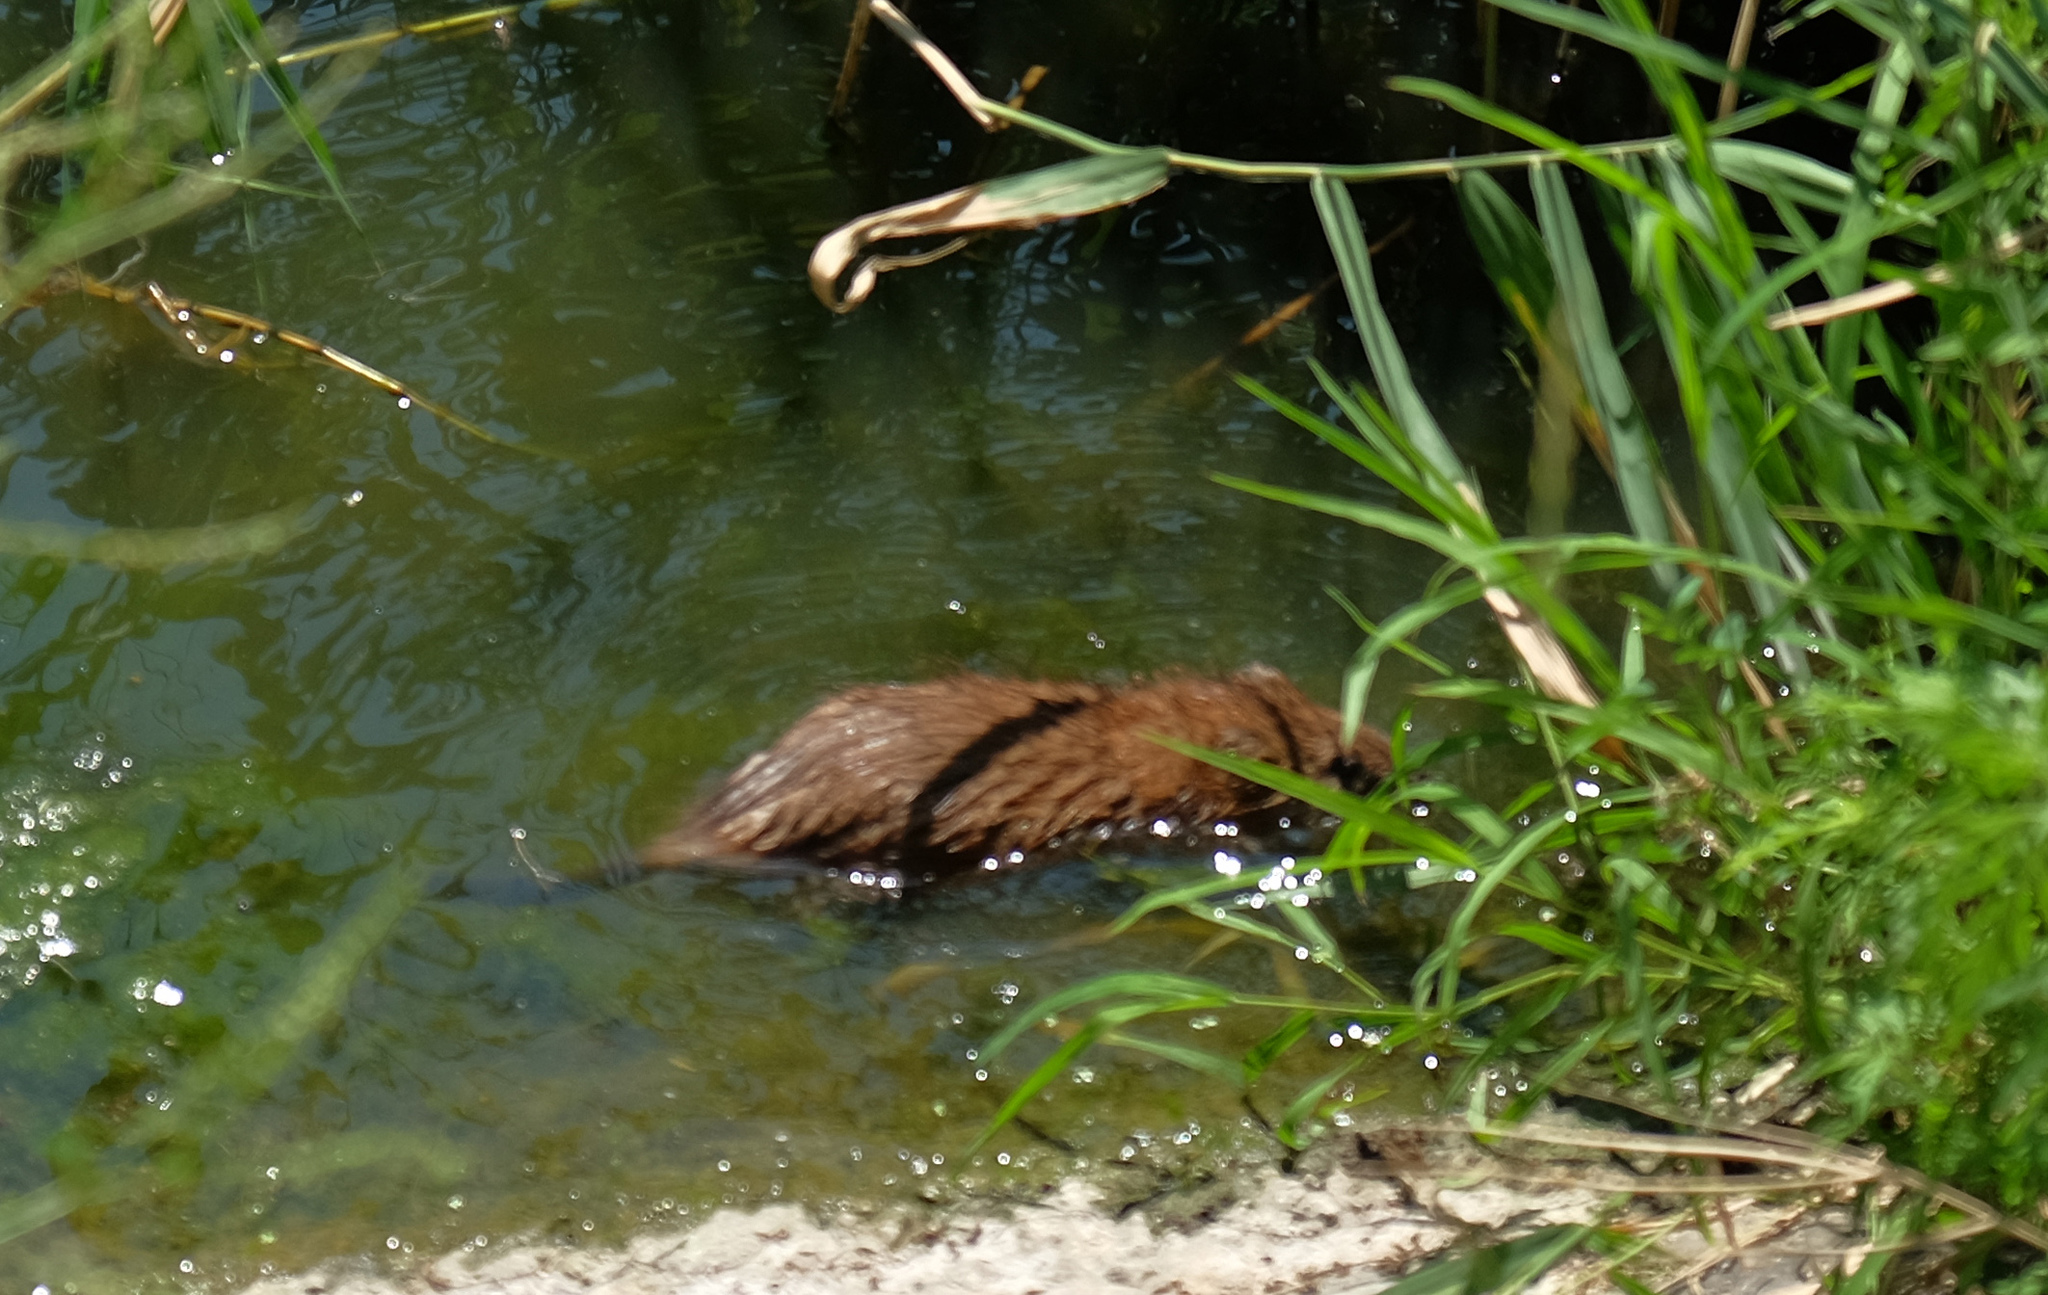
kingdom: Animalia
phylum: Chordata
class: Mammalia
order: Rodentia
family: Cricetidae
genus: Ondatra
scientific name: Ondatra zibethicus
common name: Muskrat
